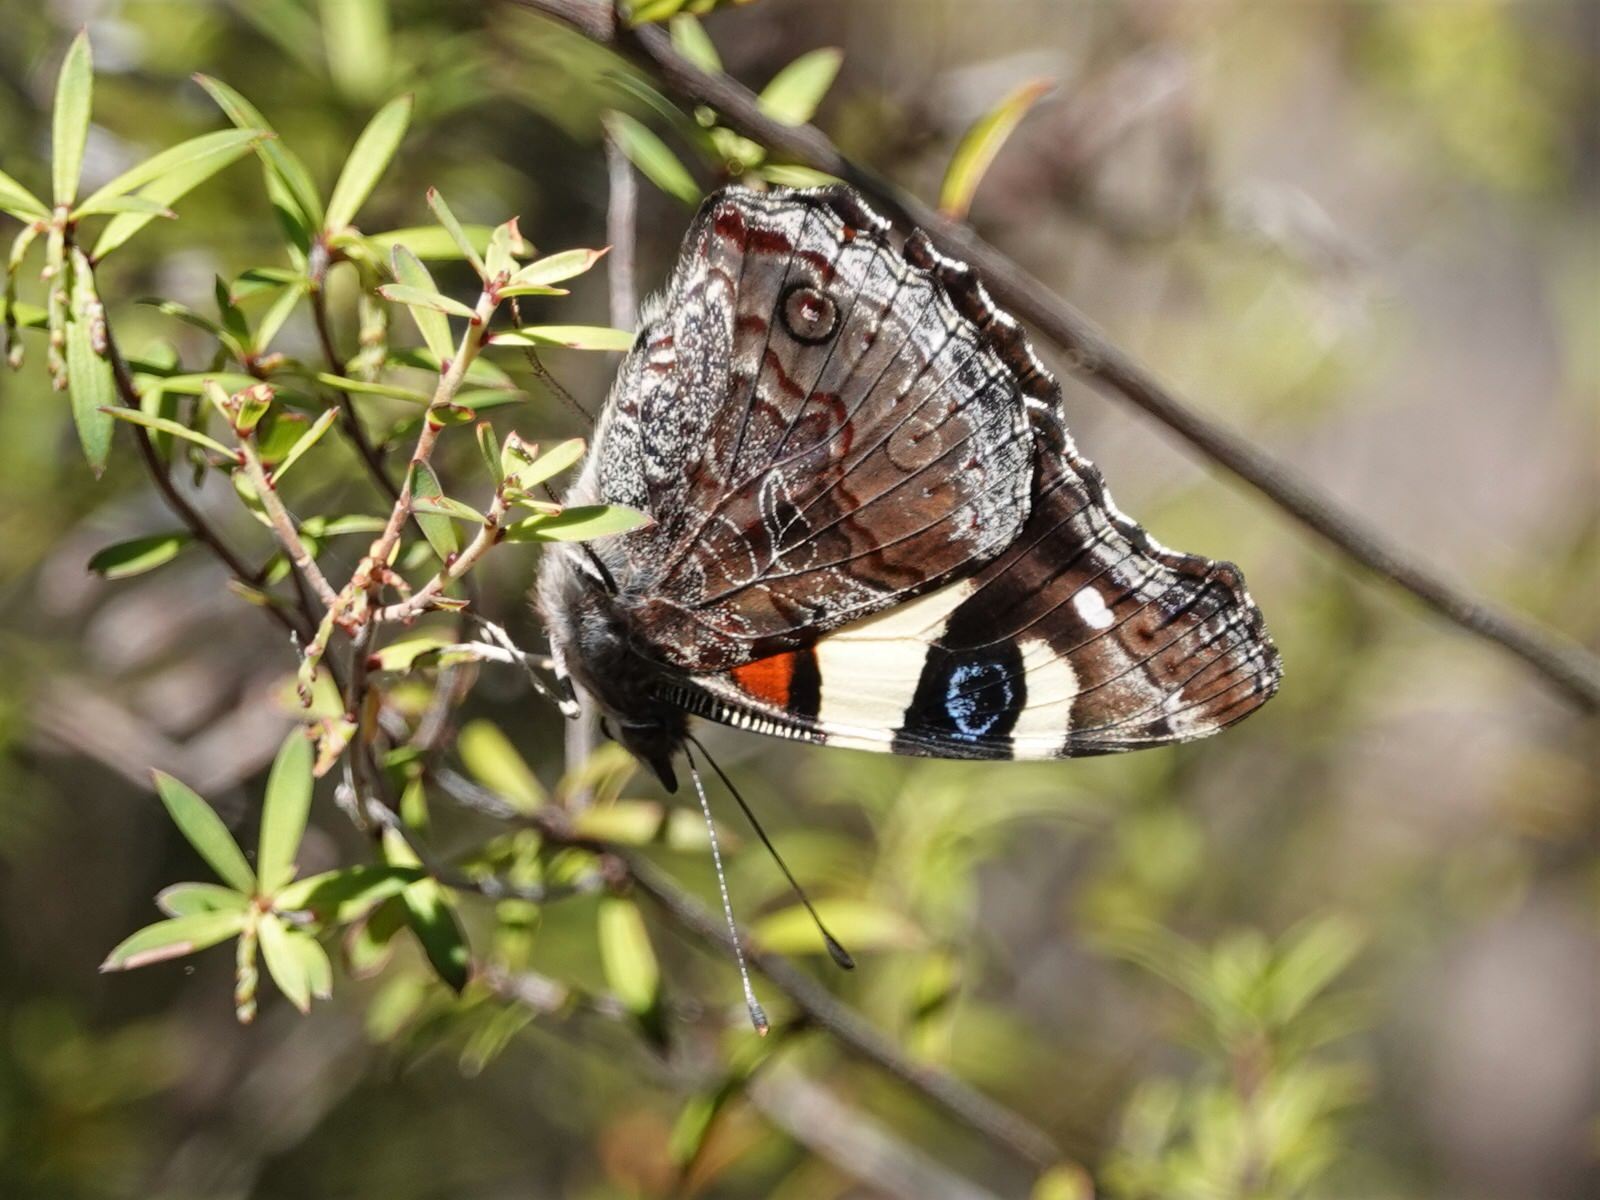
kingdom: Animalia
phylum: Arthropoda
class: Insecta
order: Lepidoptera
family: Nymphalidae
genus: Vanessa
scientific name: Vanessa itea
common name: Yellow admiral
